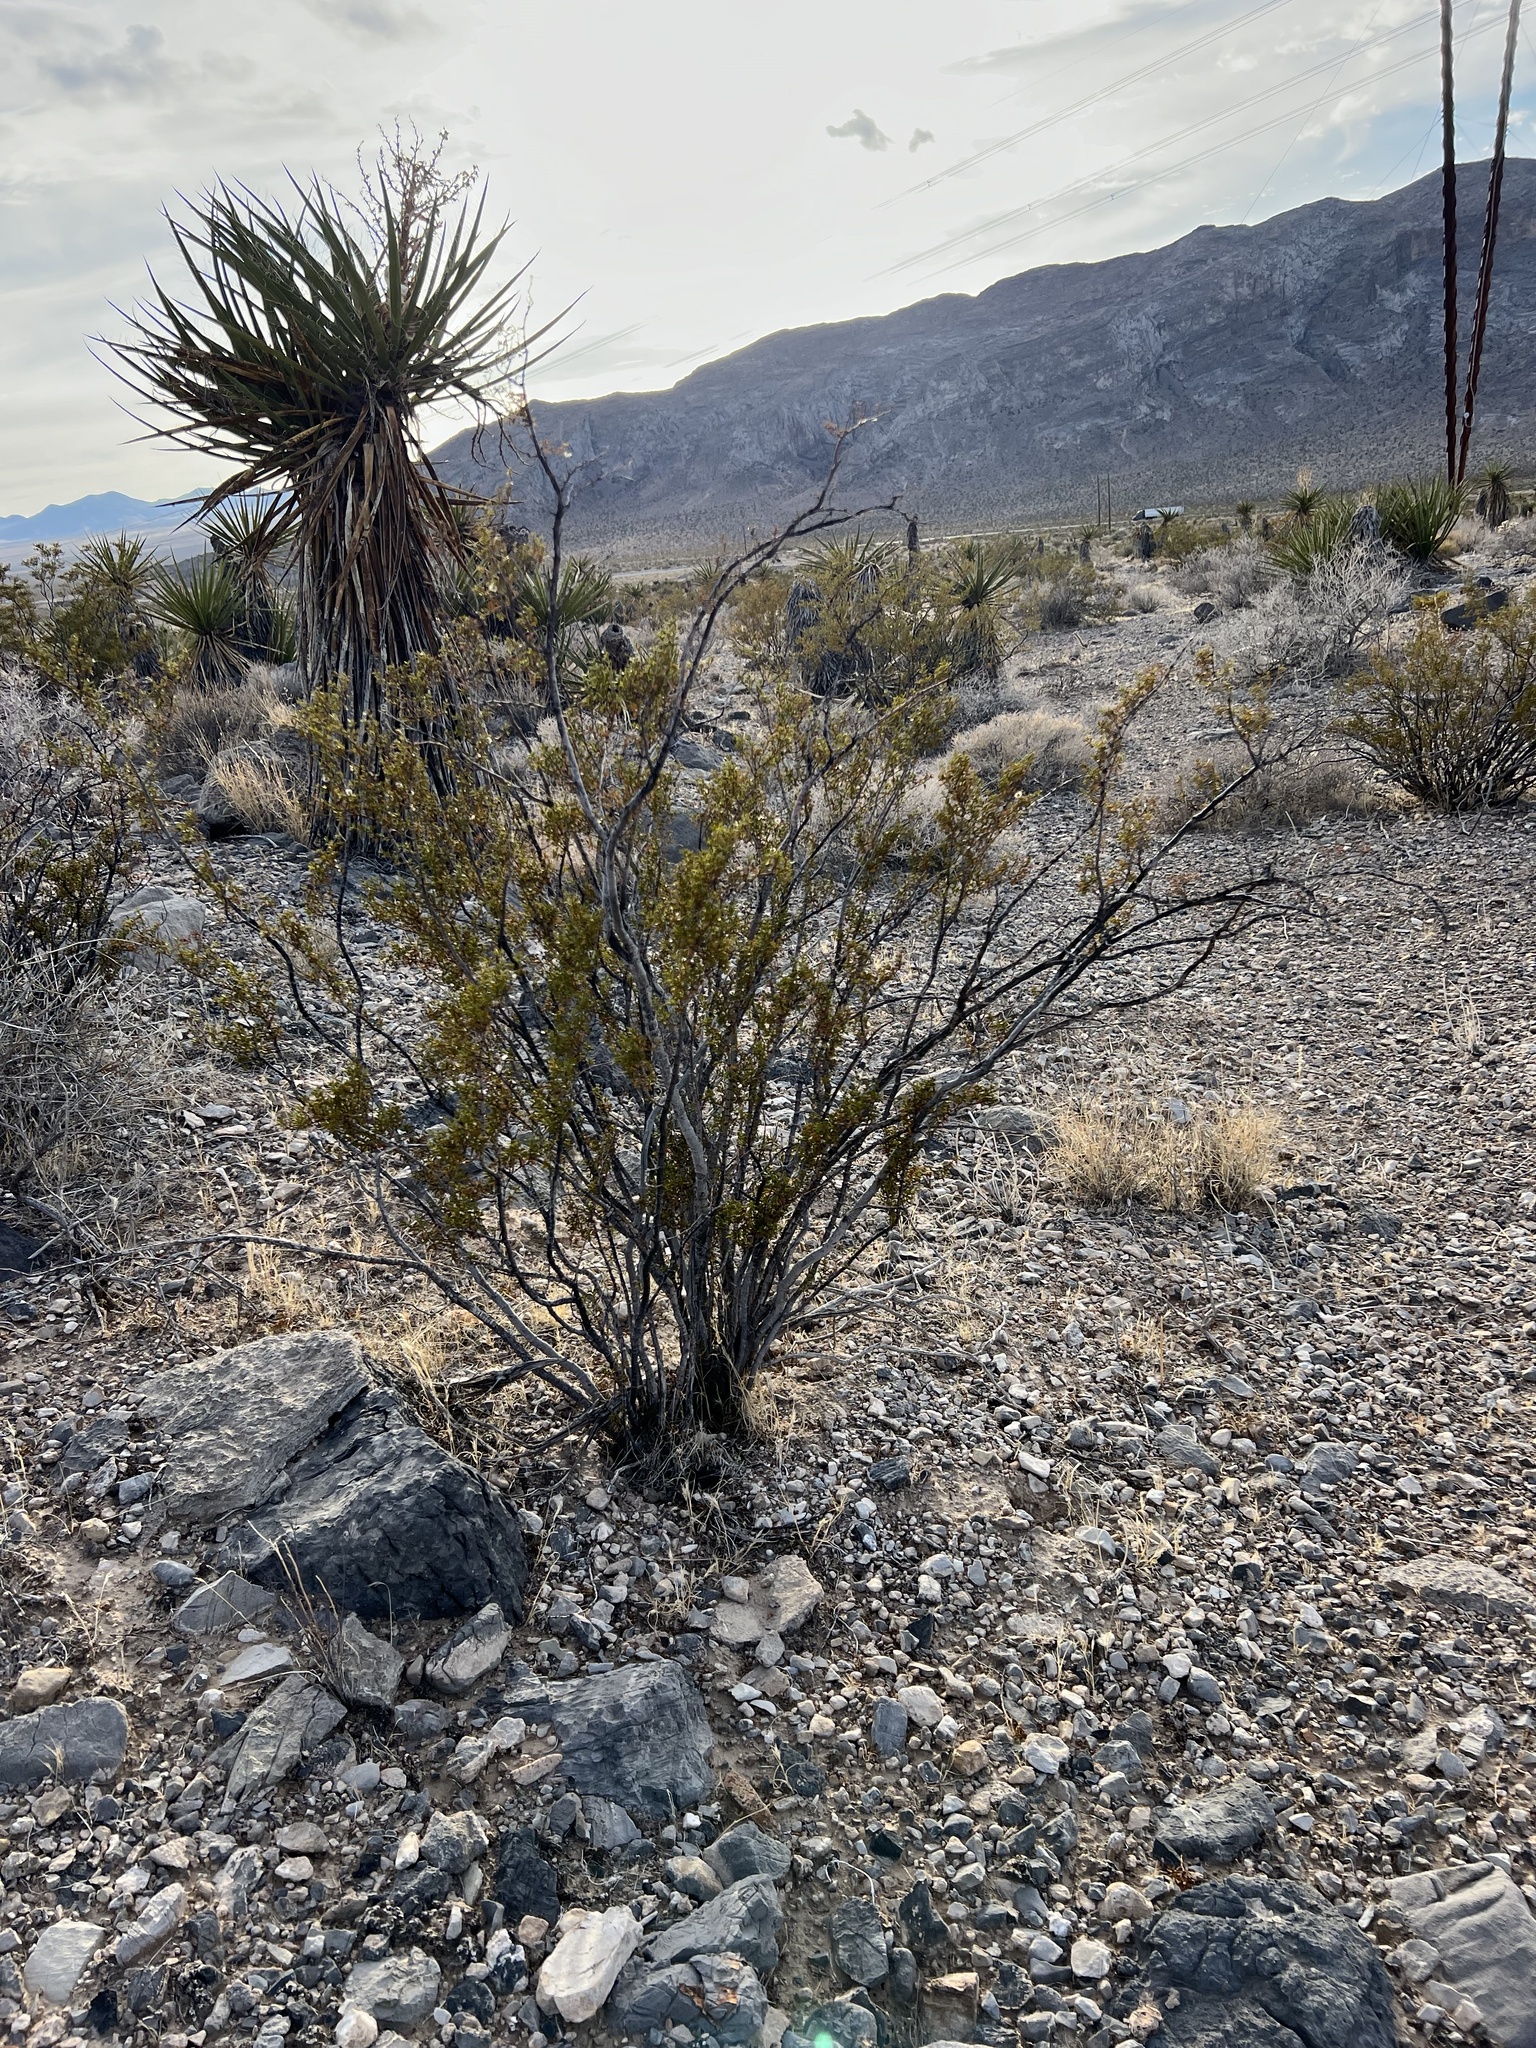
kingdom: Plantae
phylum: Tracheophyta
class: Magnoliopsida
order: Zygophyllales
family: Zygophyllaceae
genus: Larrea
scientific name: Larrea tridentata
